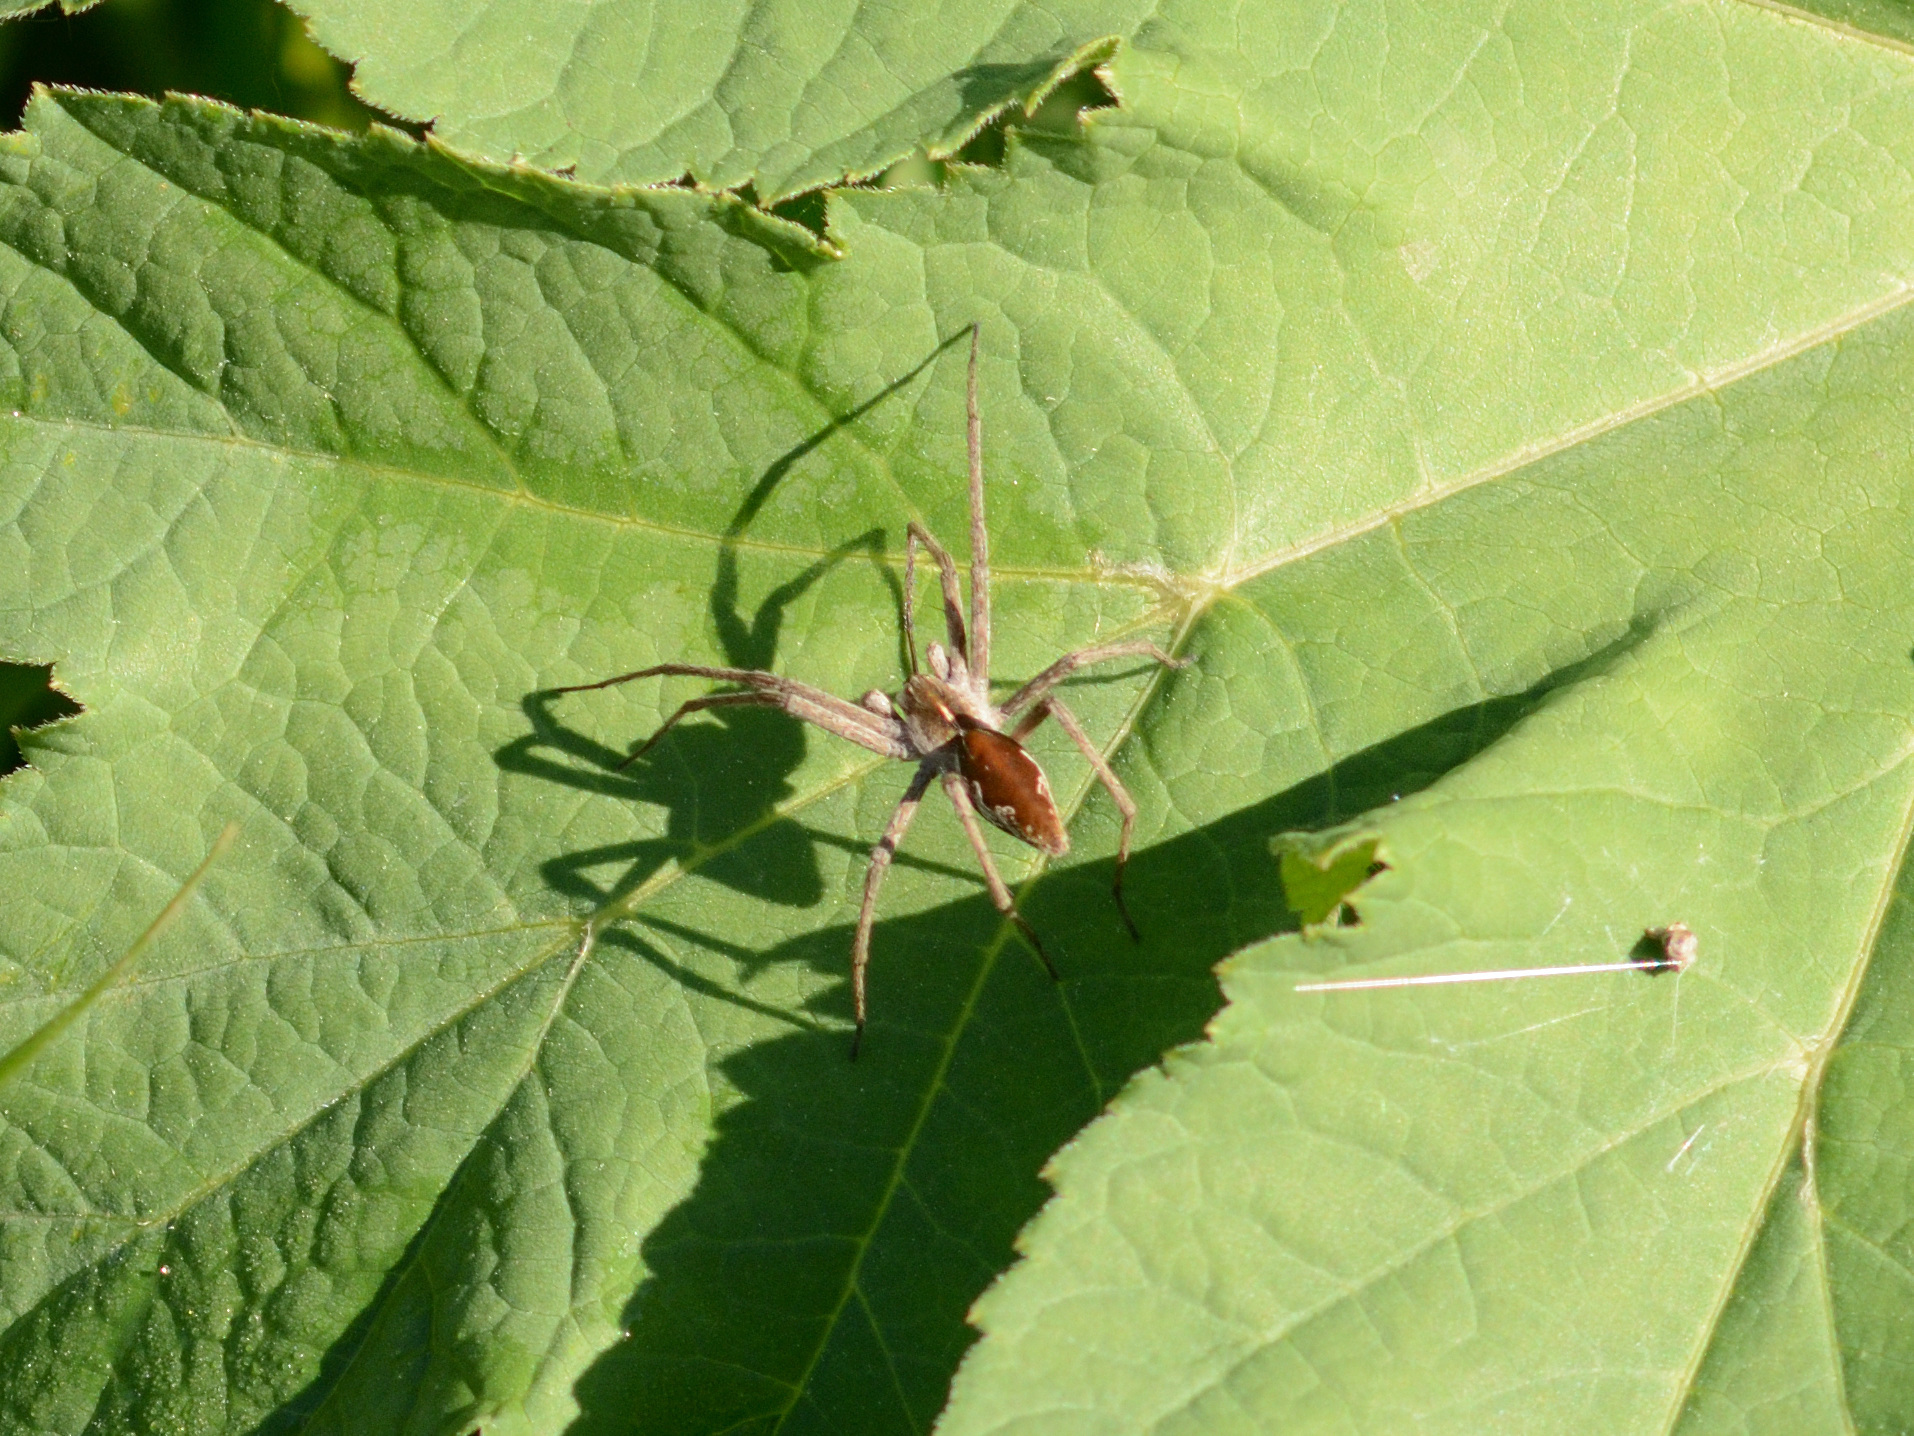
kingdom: Animalia
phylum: Arthropoda
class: Arachnida
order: Araneae
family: Pisauridae
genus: Pisaura
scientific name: Pisaura mirabilis
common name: Tent spider
